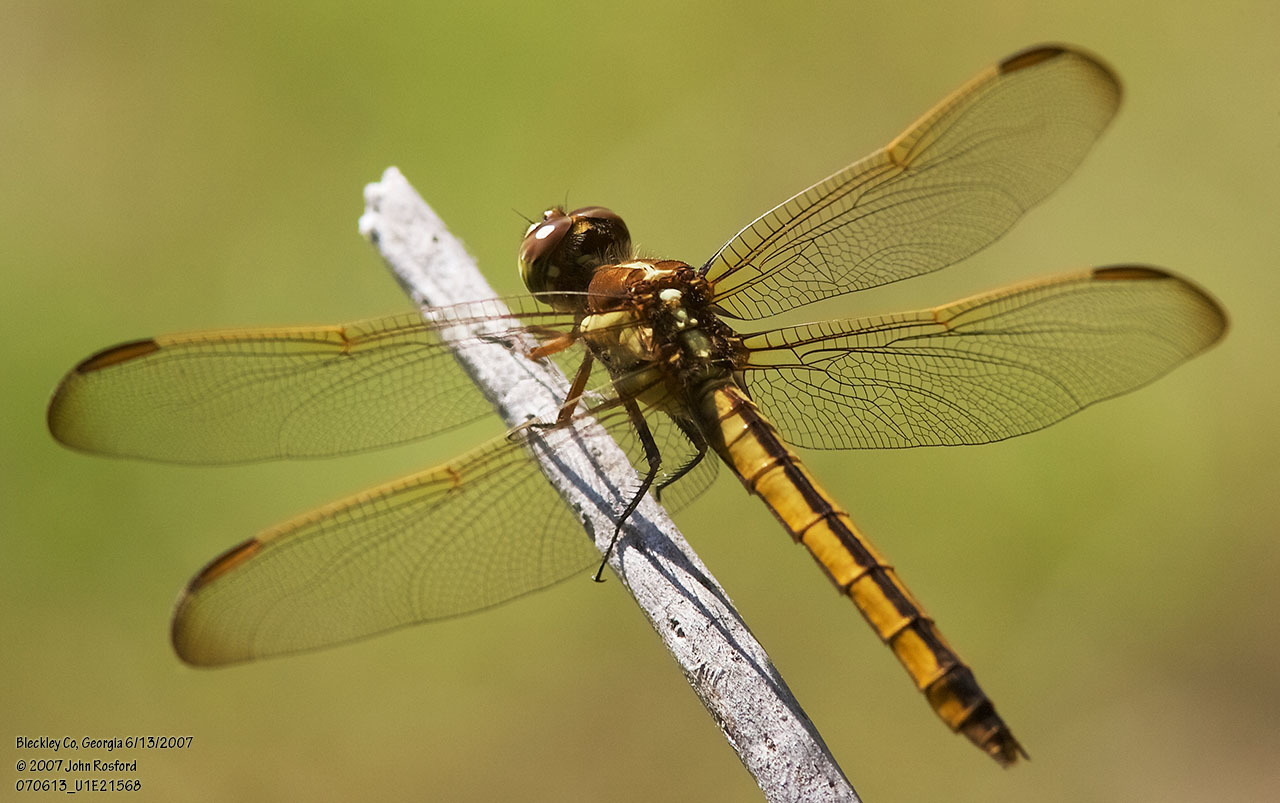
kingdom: Animalia
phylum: Arthropoda
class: Insecta
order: Odonata
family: Libellulidae
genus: Libellula
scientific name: Libellula auripennis
